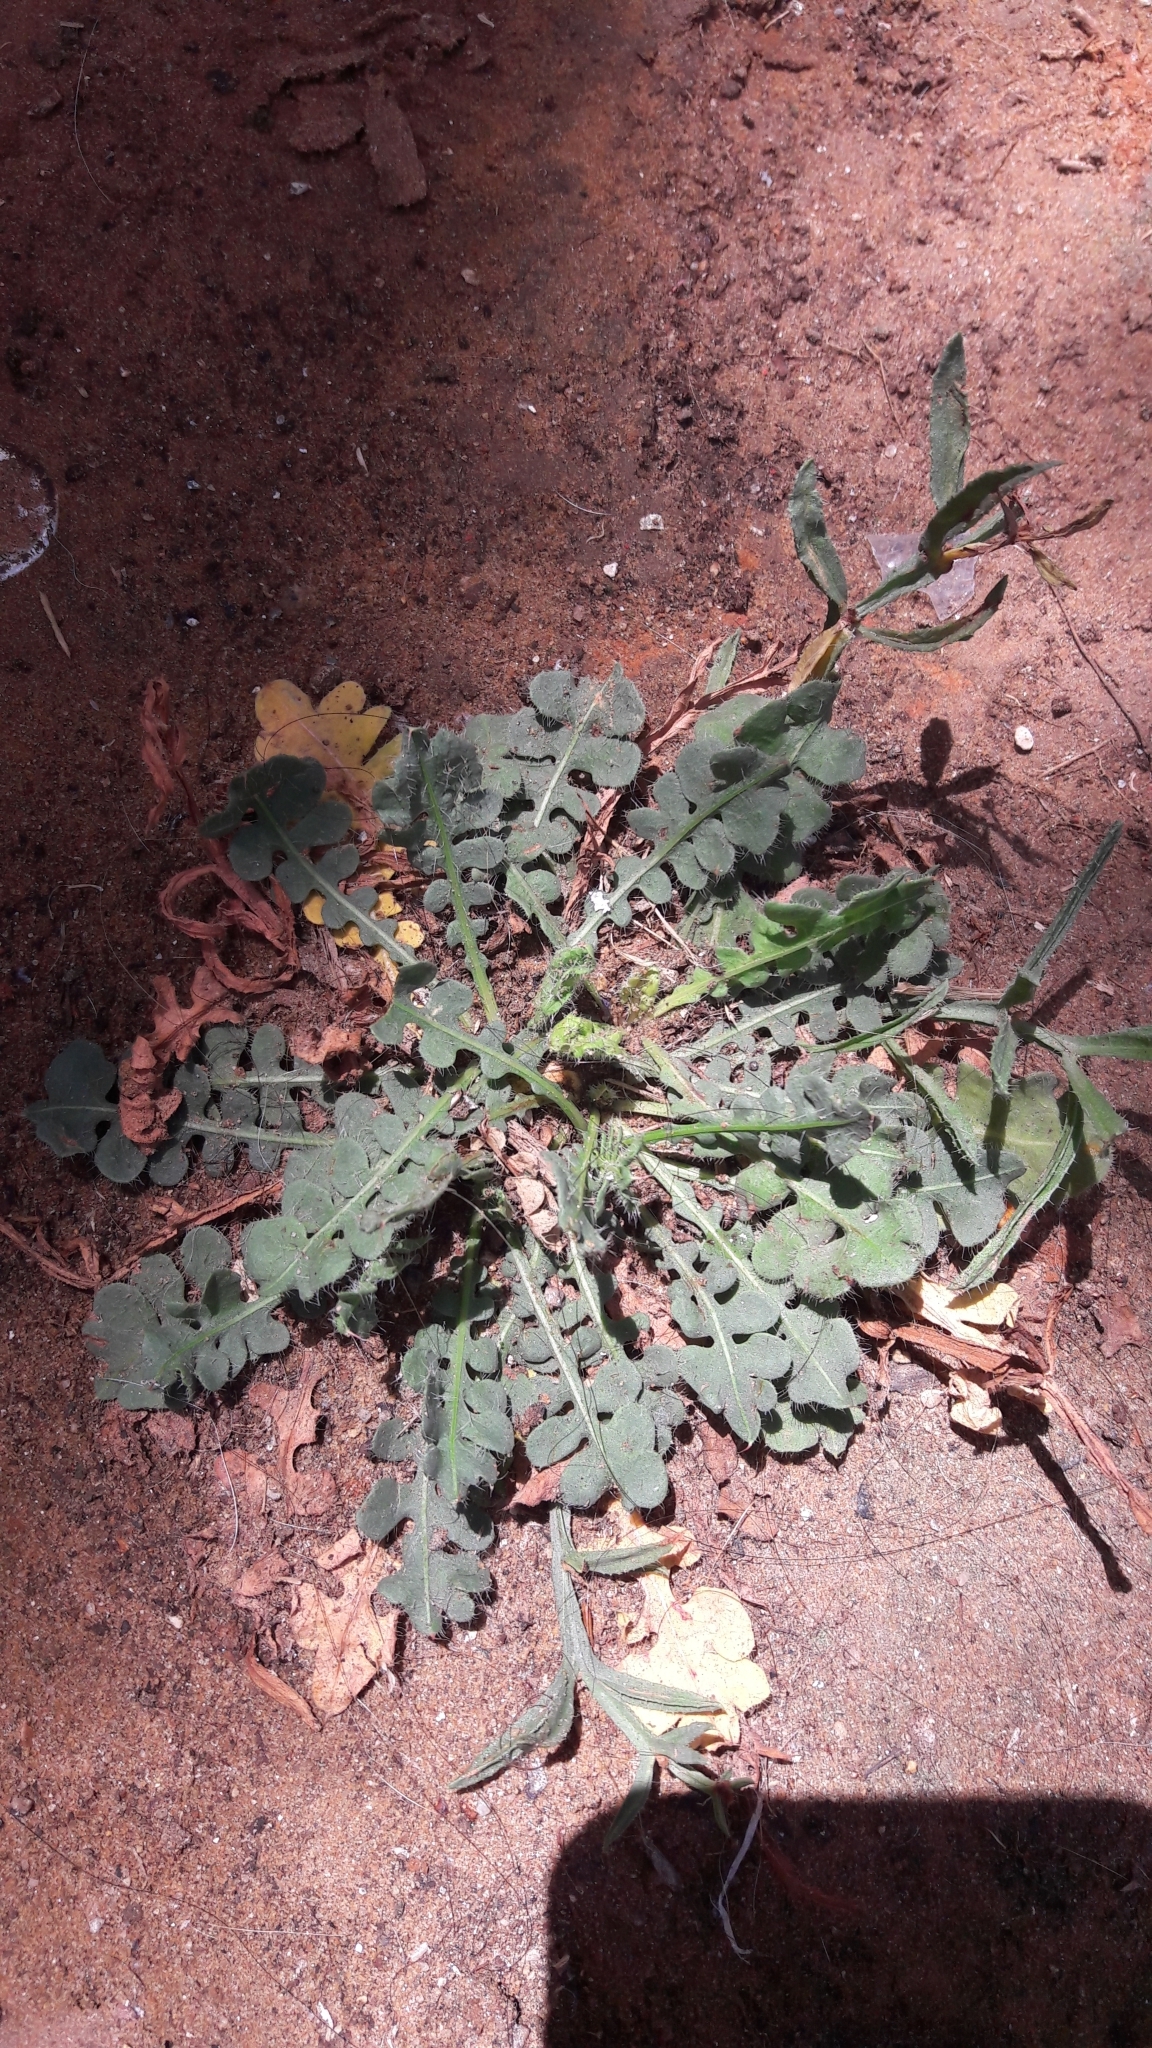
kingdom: Plantae
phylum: Tracheophyta
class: Magnoliopsida
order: Ranunculales
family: Papaveraceae
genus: Glaucium
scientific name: Glaucium flavum
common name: Yellow horned-poppy
